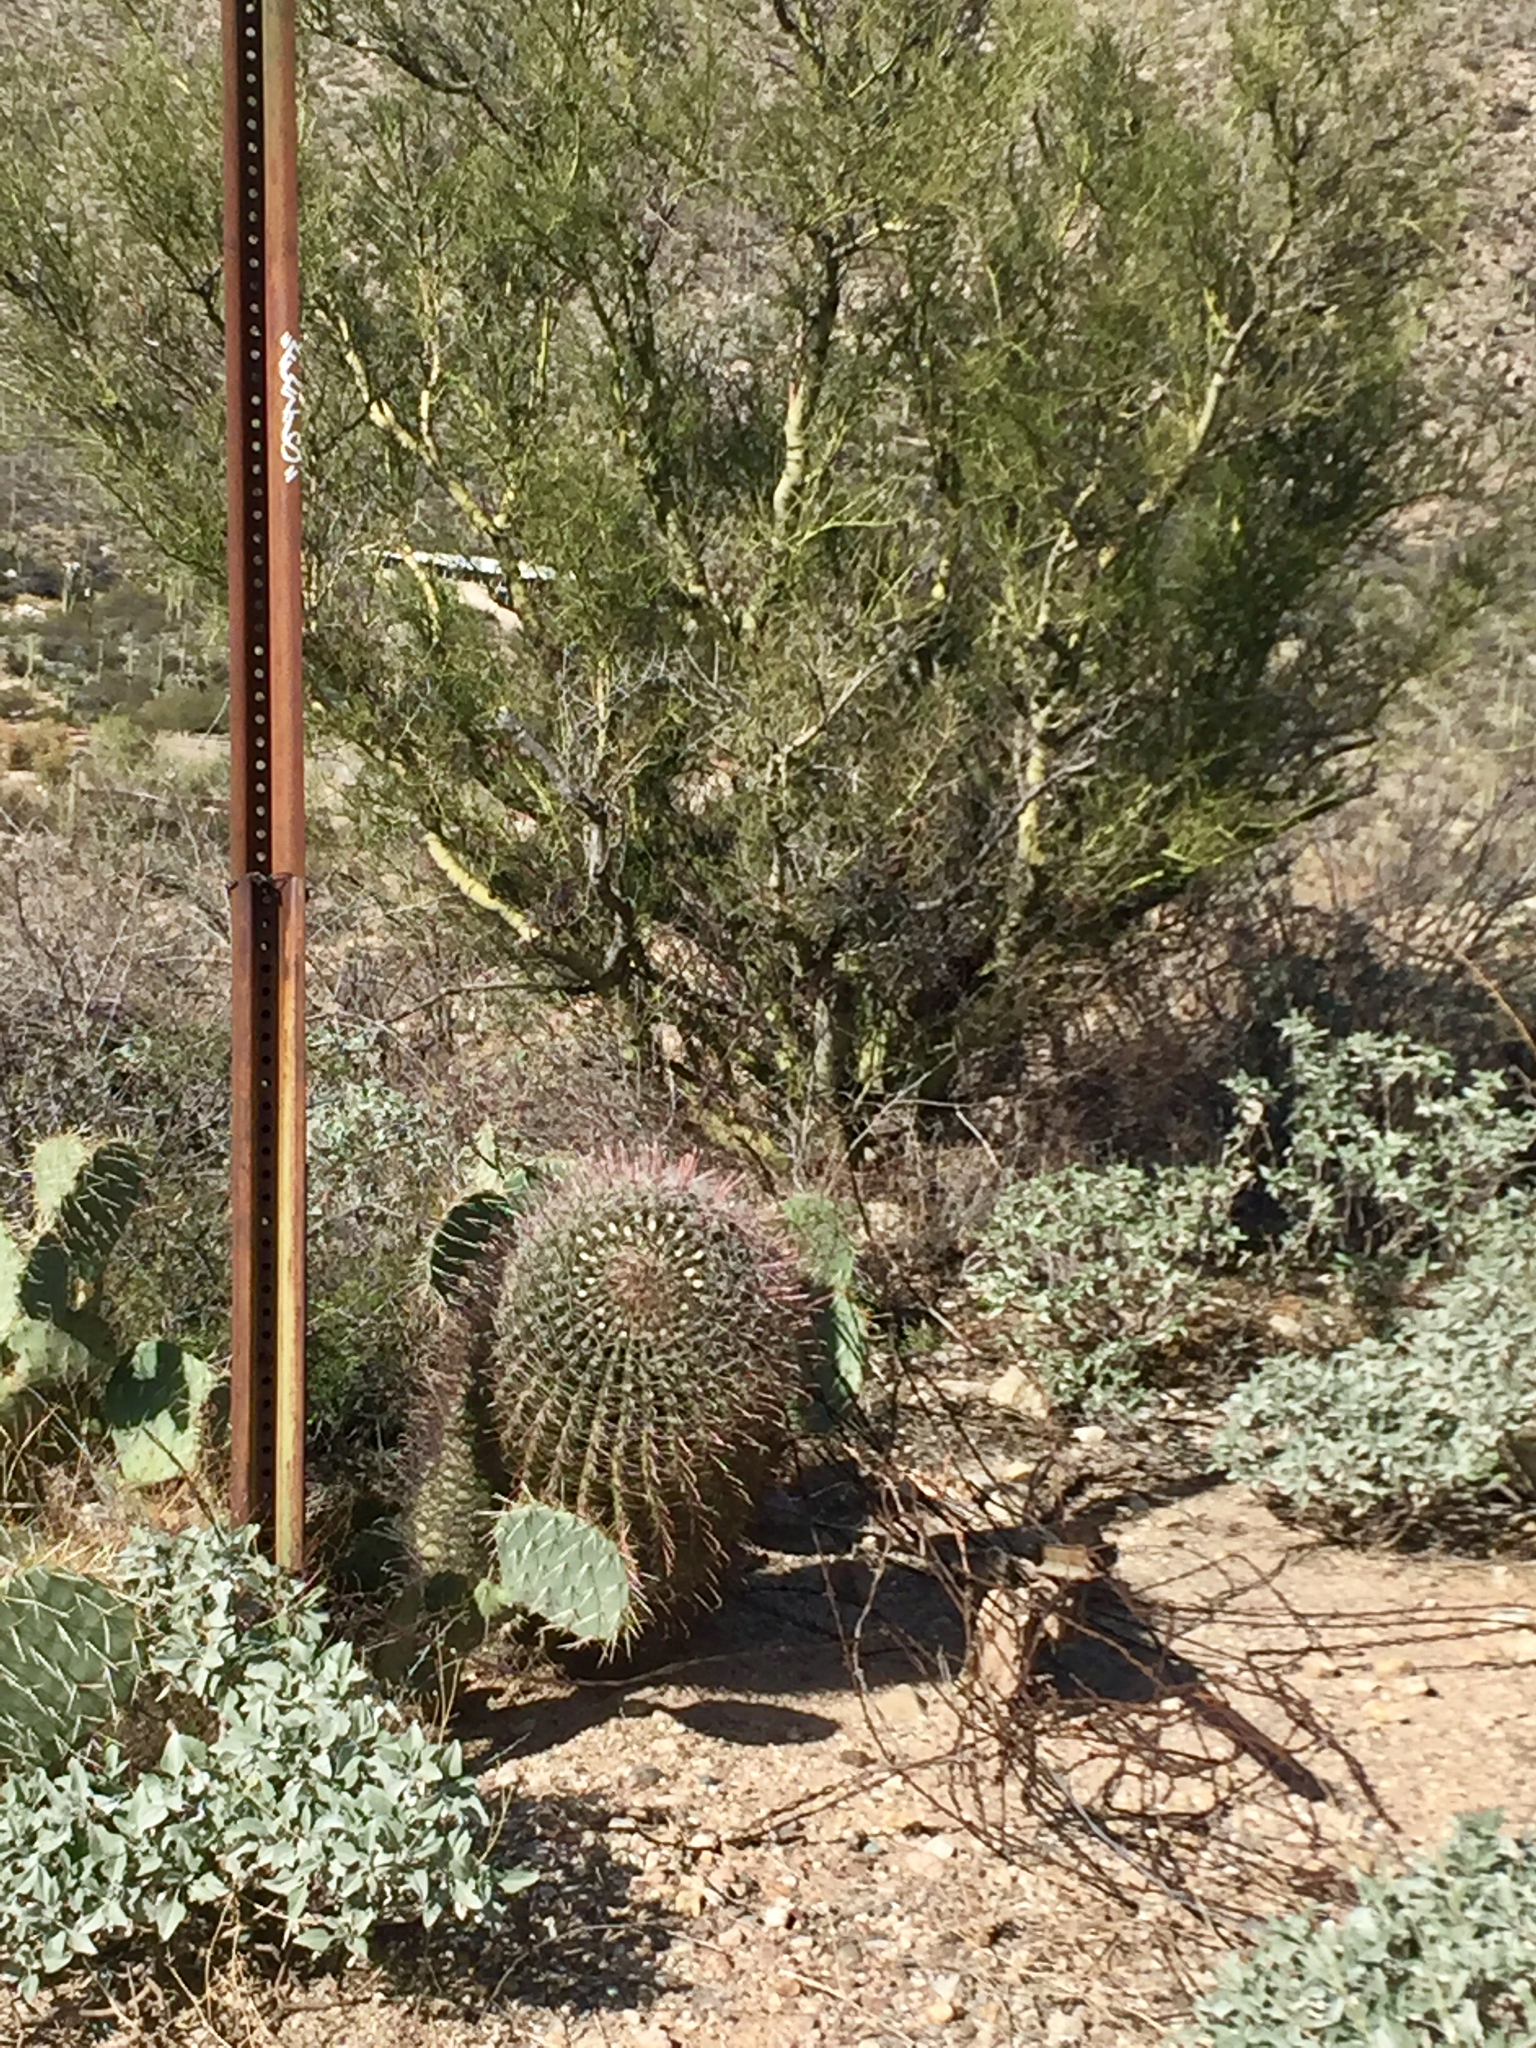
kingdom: Plantae
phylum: Tracheophyta
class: Magnoliopsida
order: Caryophyllales
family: Cactaceae
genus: Ferocactus
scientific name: Ferocactus wislizeni
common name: Candy barrel cactus
